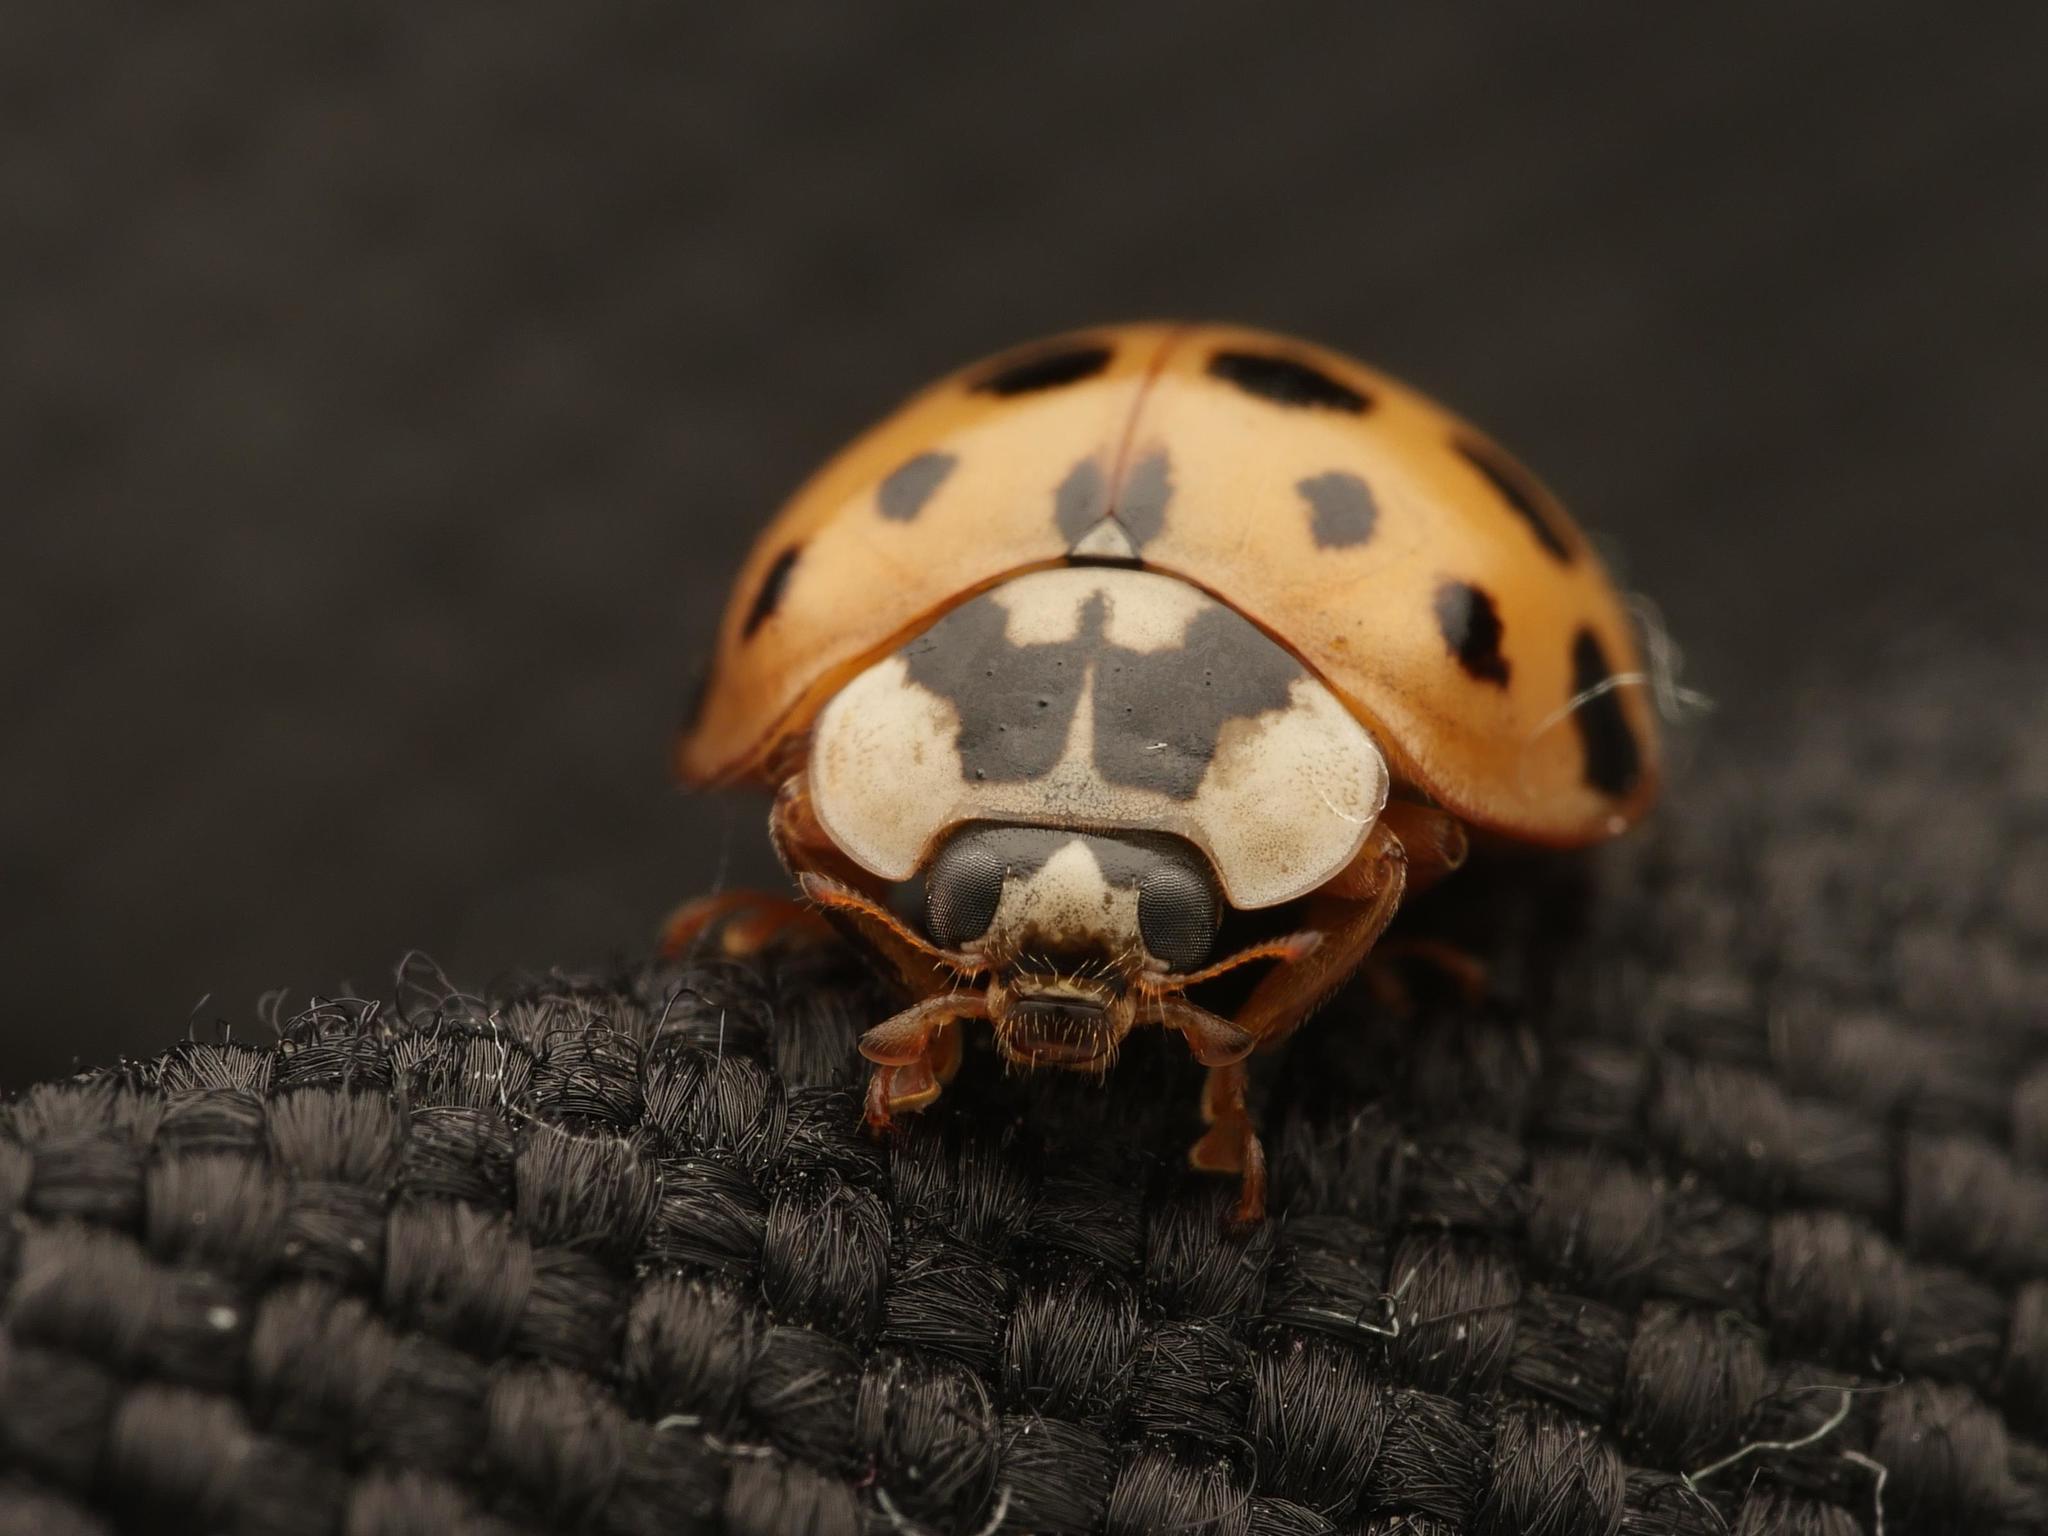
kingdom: Animalia
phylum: Arthropoda
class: Insecta
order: Coleoptera
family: Coccinellidae
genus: Harmonia
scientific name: Harmonia axyridis
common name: Harlequin ladybird
